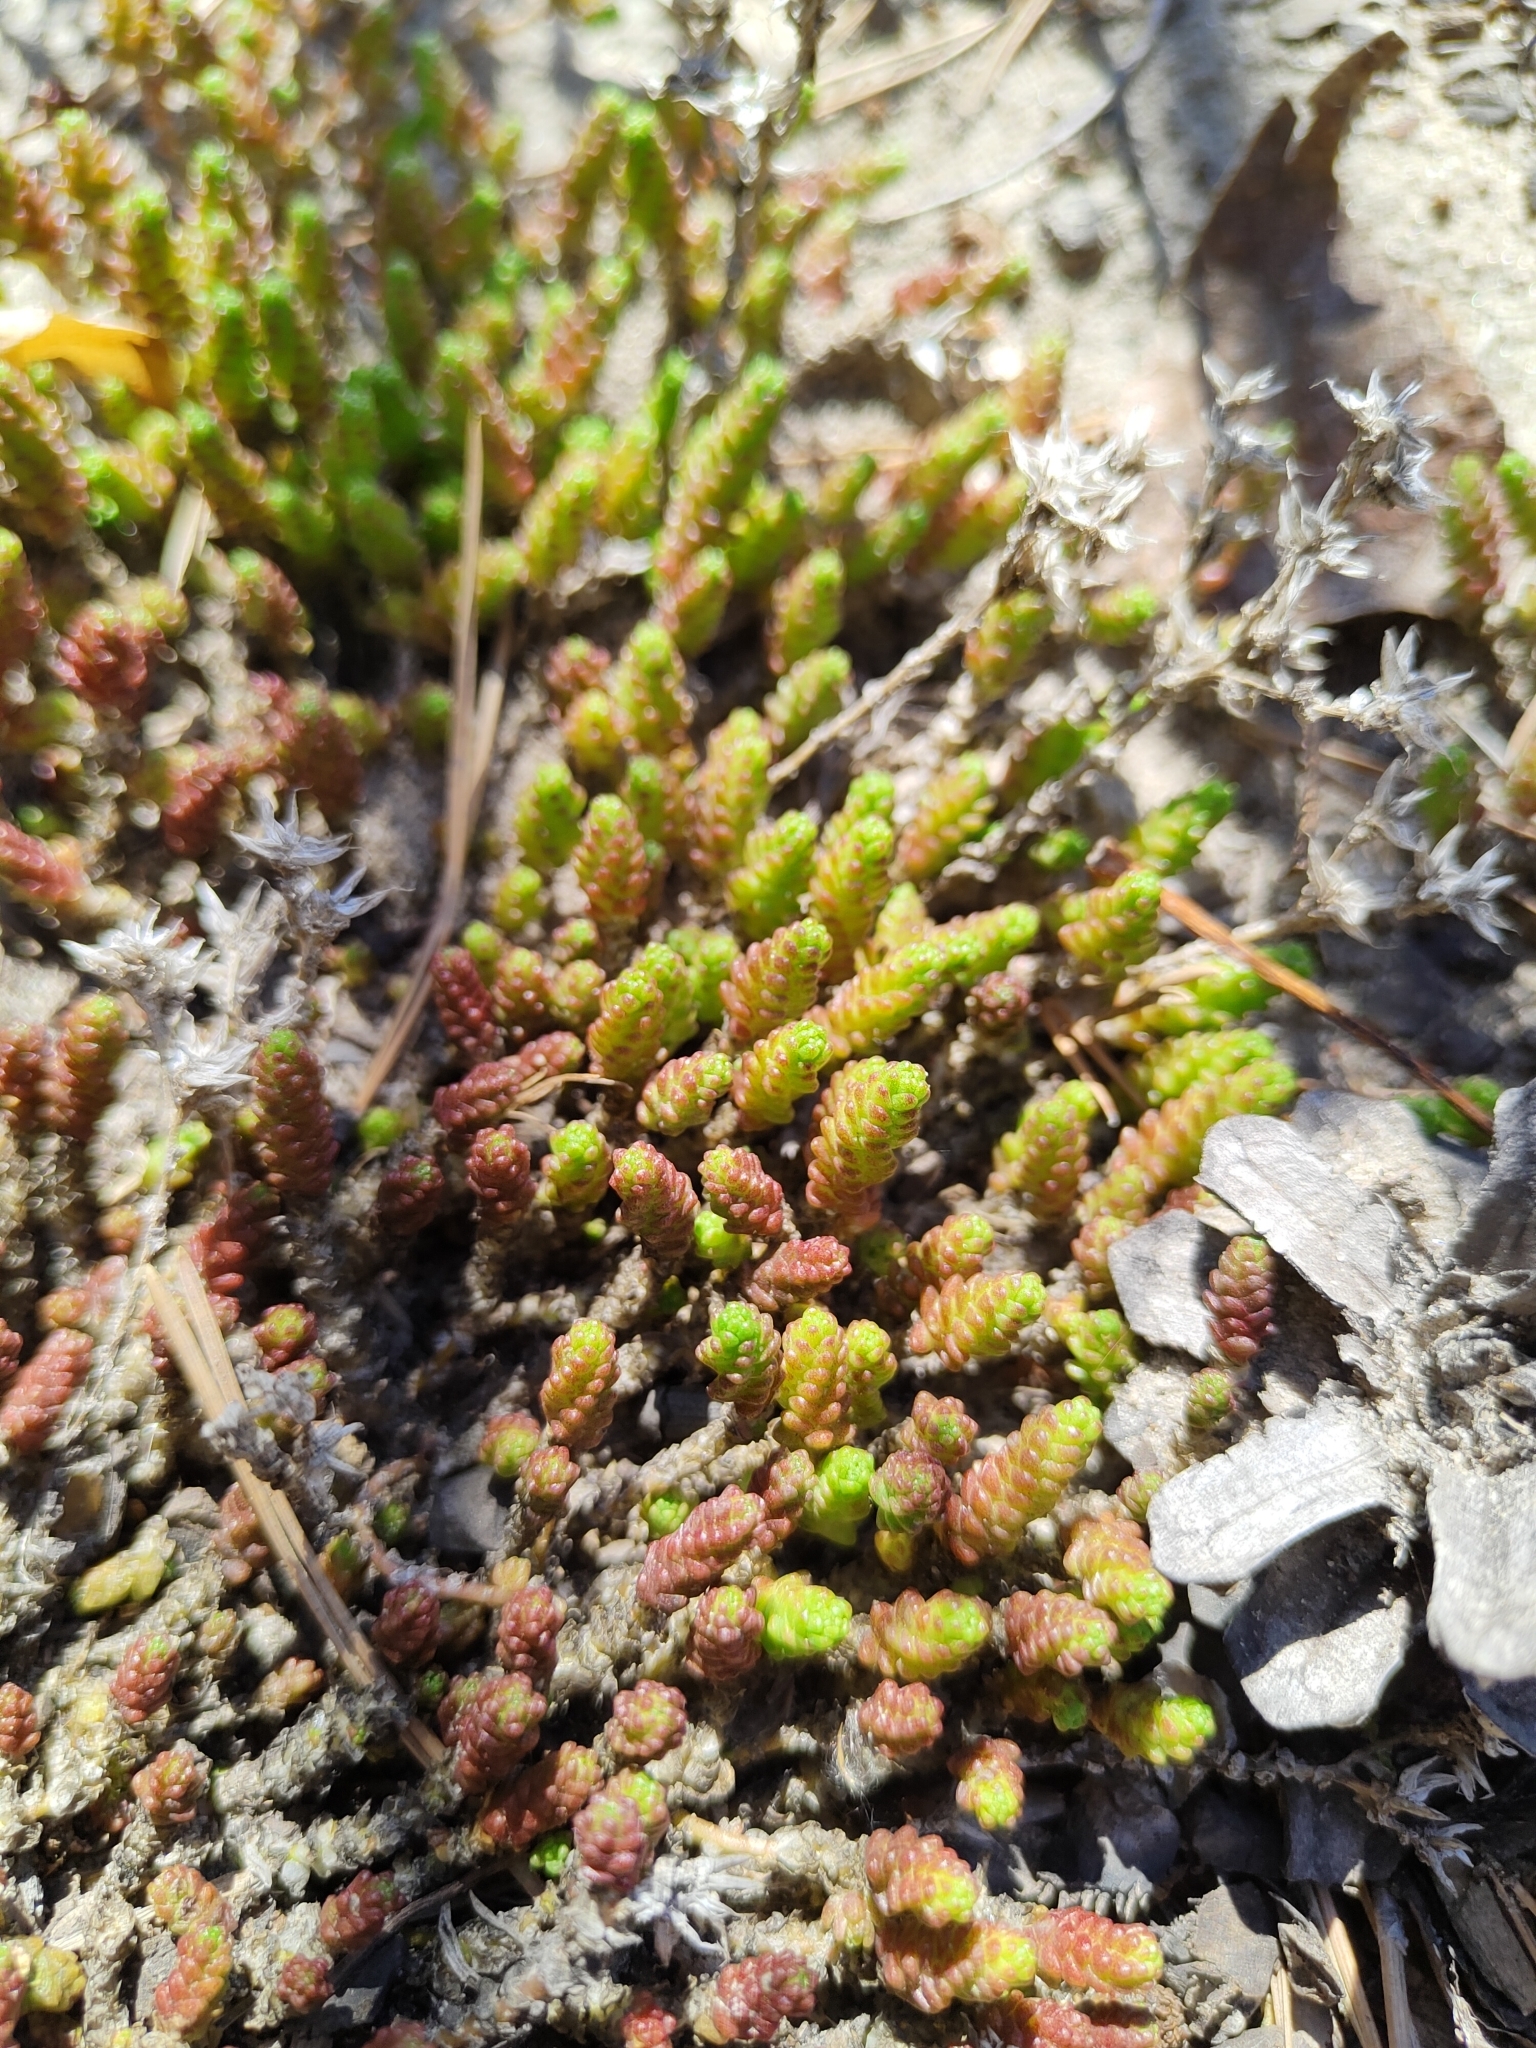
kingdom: Plantae
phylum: Tracheophyta
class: Magnoliopsida
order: Saxifragales
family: Crassulaceae
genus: Sedum
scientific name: Sedum acre
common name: Biting stonecrop
